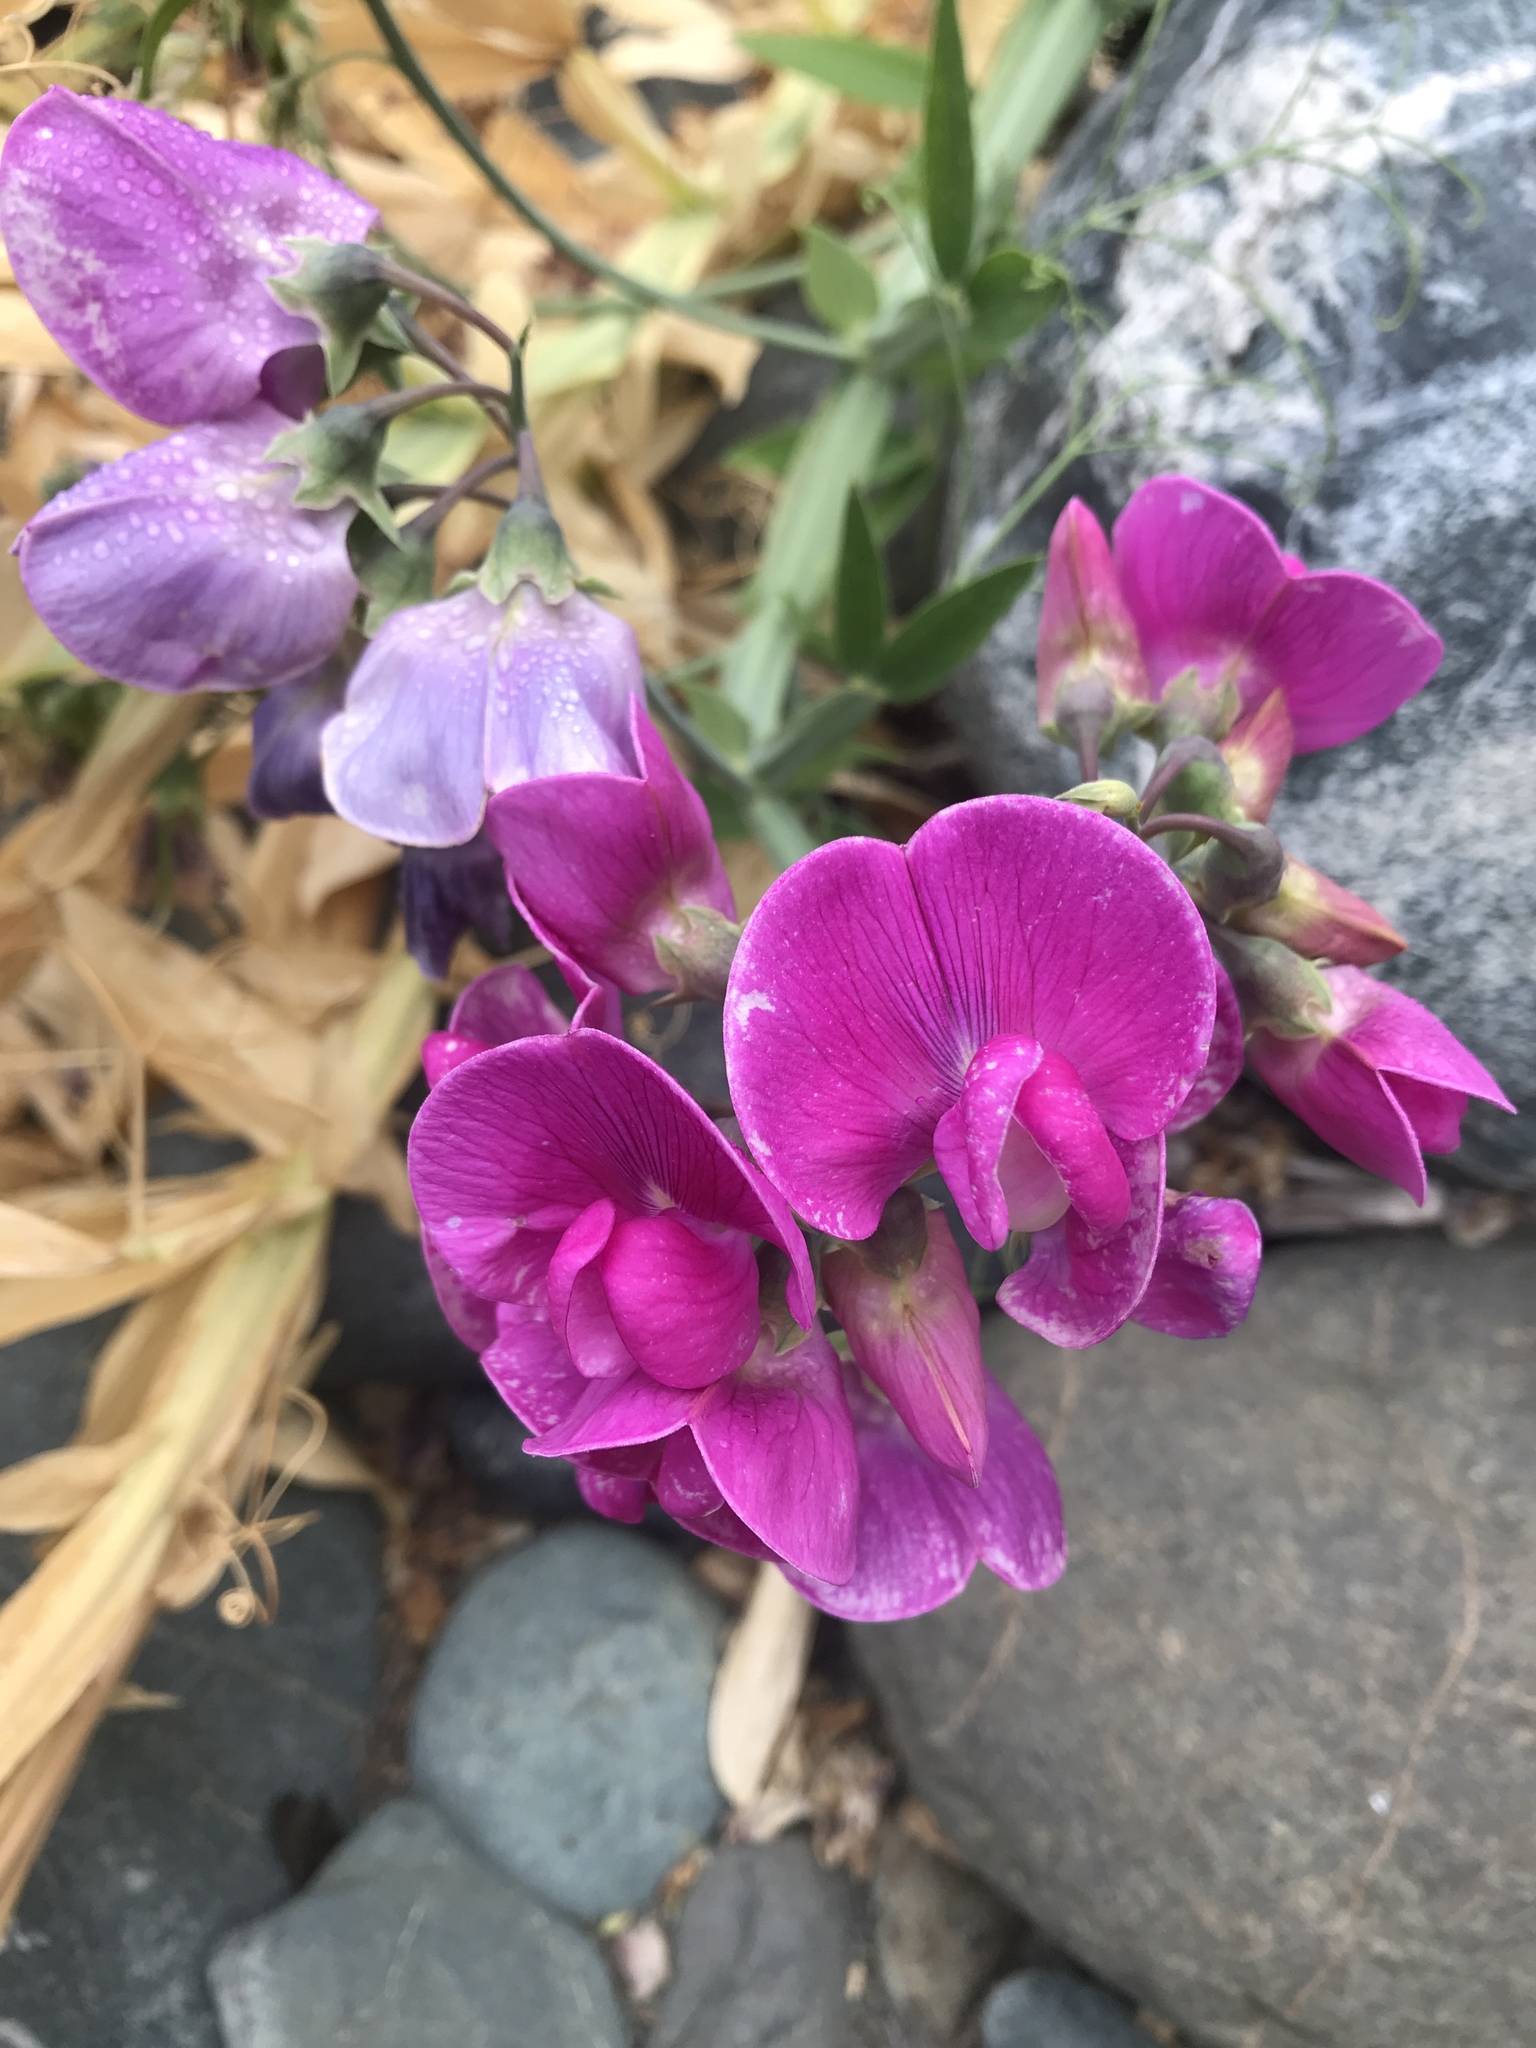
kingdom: Plantae
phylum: Tracheophyta
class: Magnoliopsida
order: Fabales
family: Fabaceae
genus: Lathyrus
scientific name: Lathyrus latifolius
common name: Perennial pea
